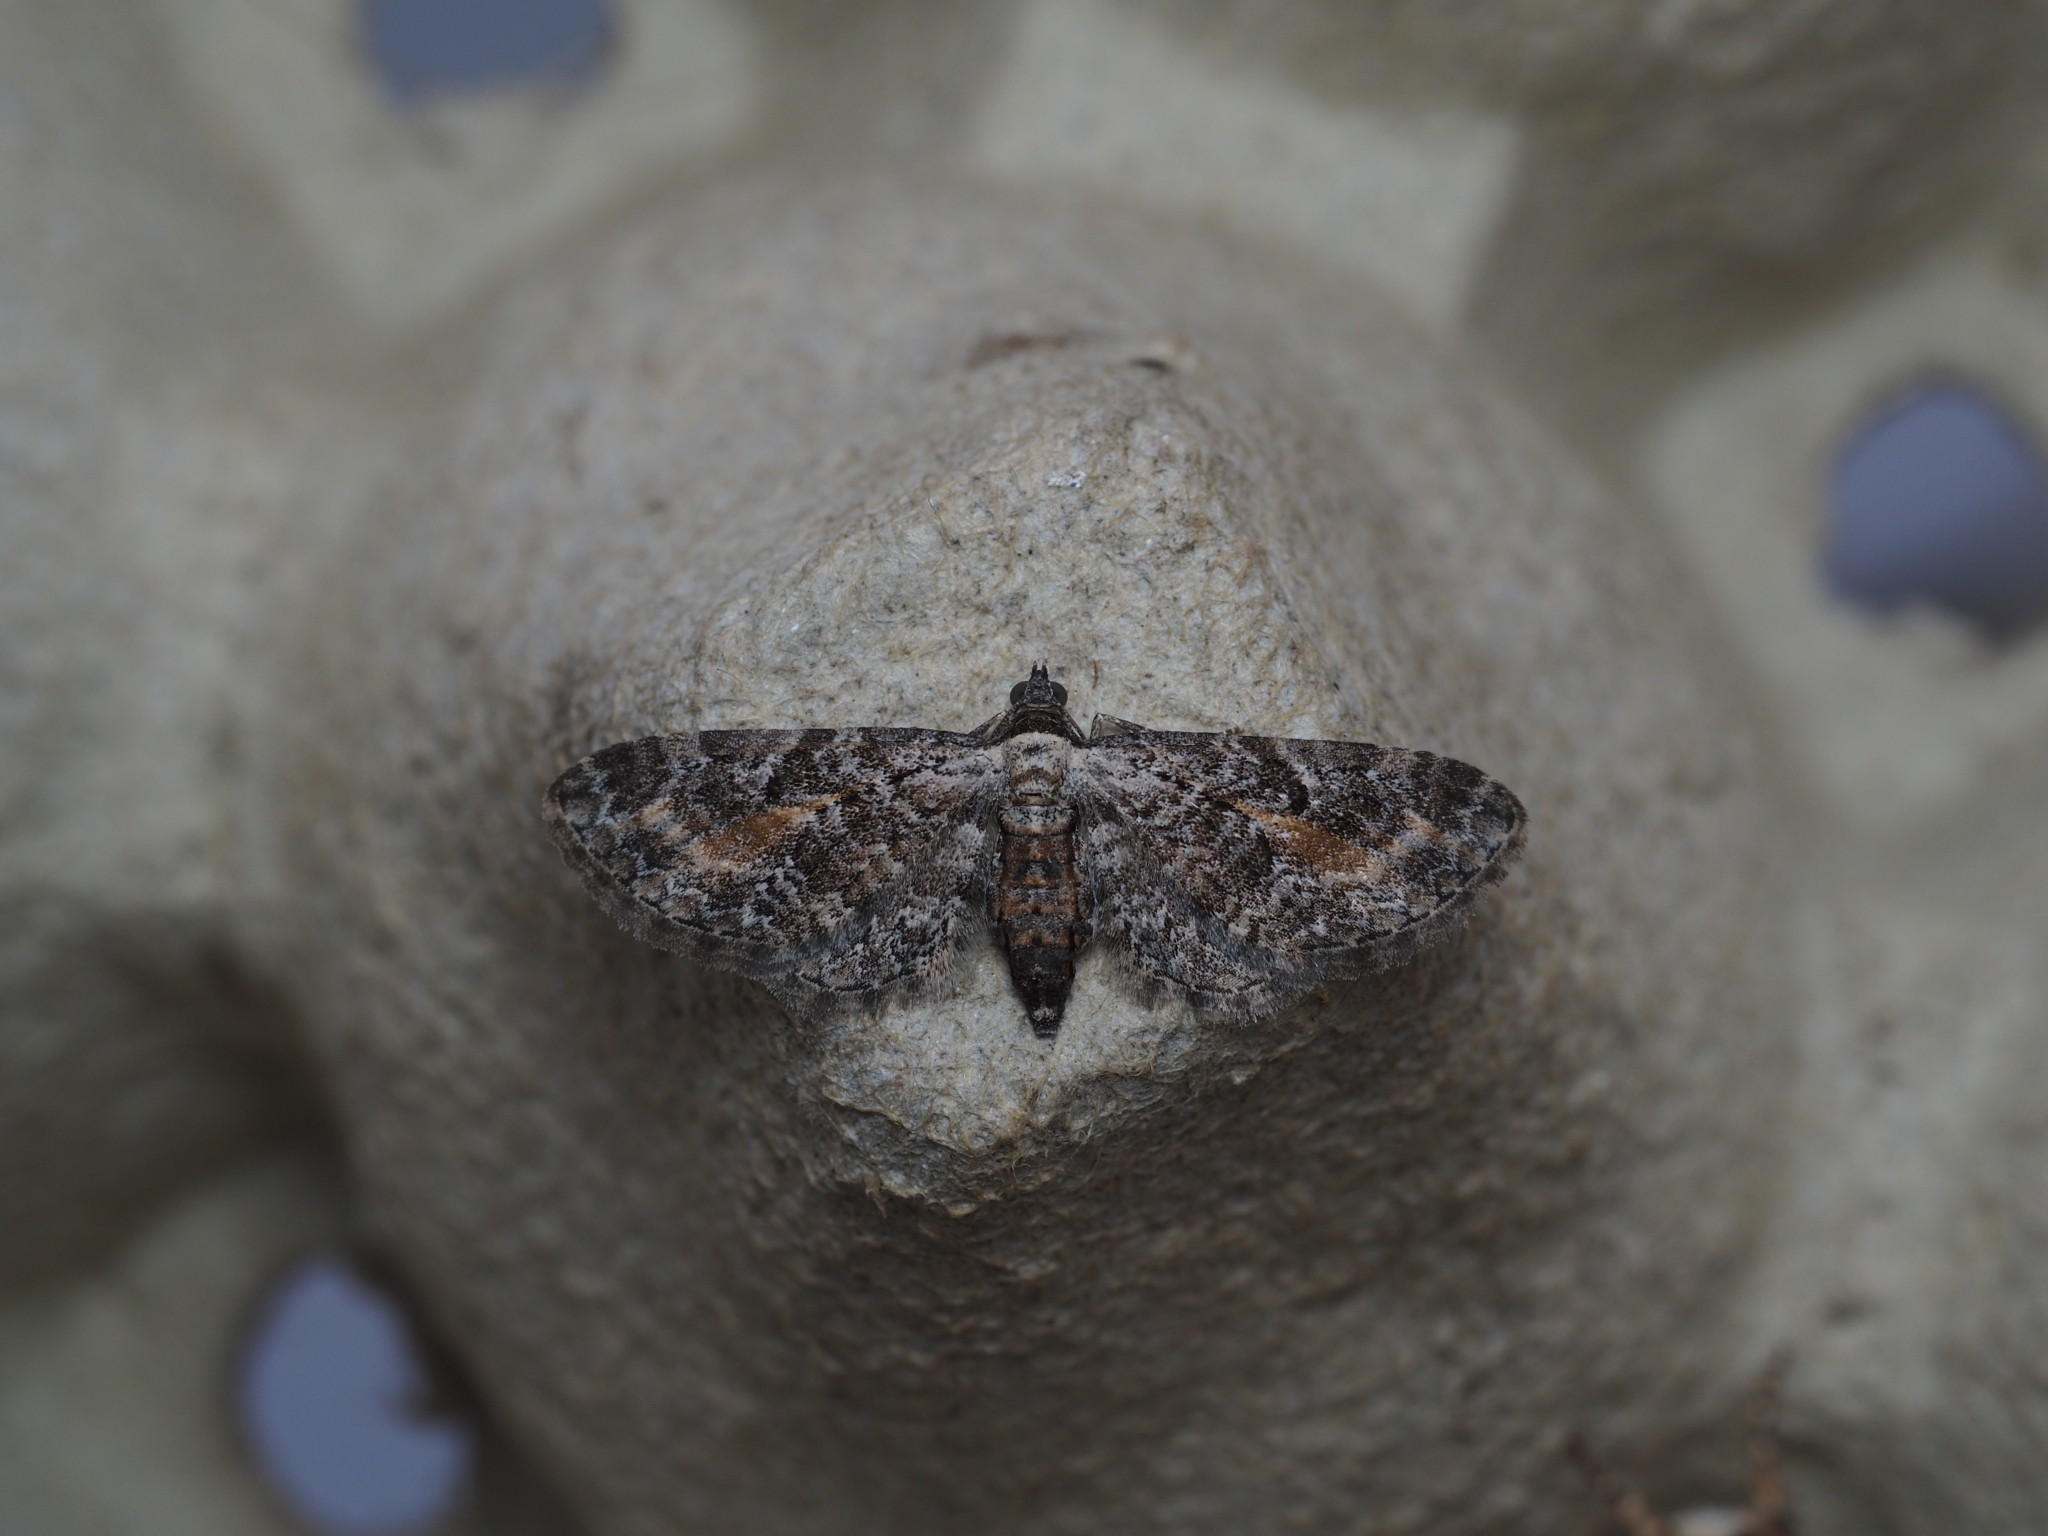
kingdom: Animalia
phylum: Arthropoda
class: Insecta
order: Lepidoptera
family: Geometridae
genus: Eupithecia
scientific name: Eupithecia icterata
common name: Tawny speckled pug
